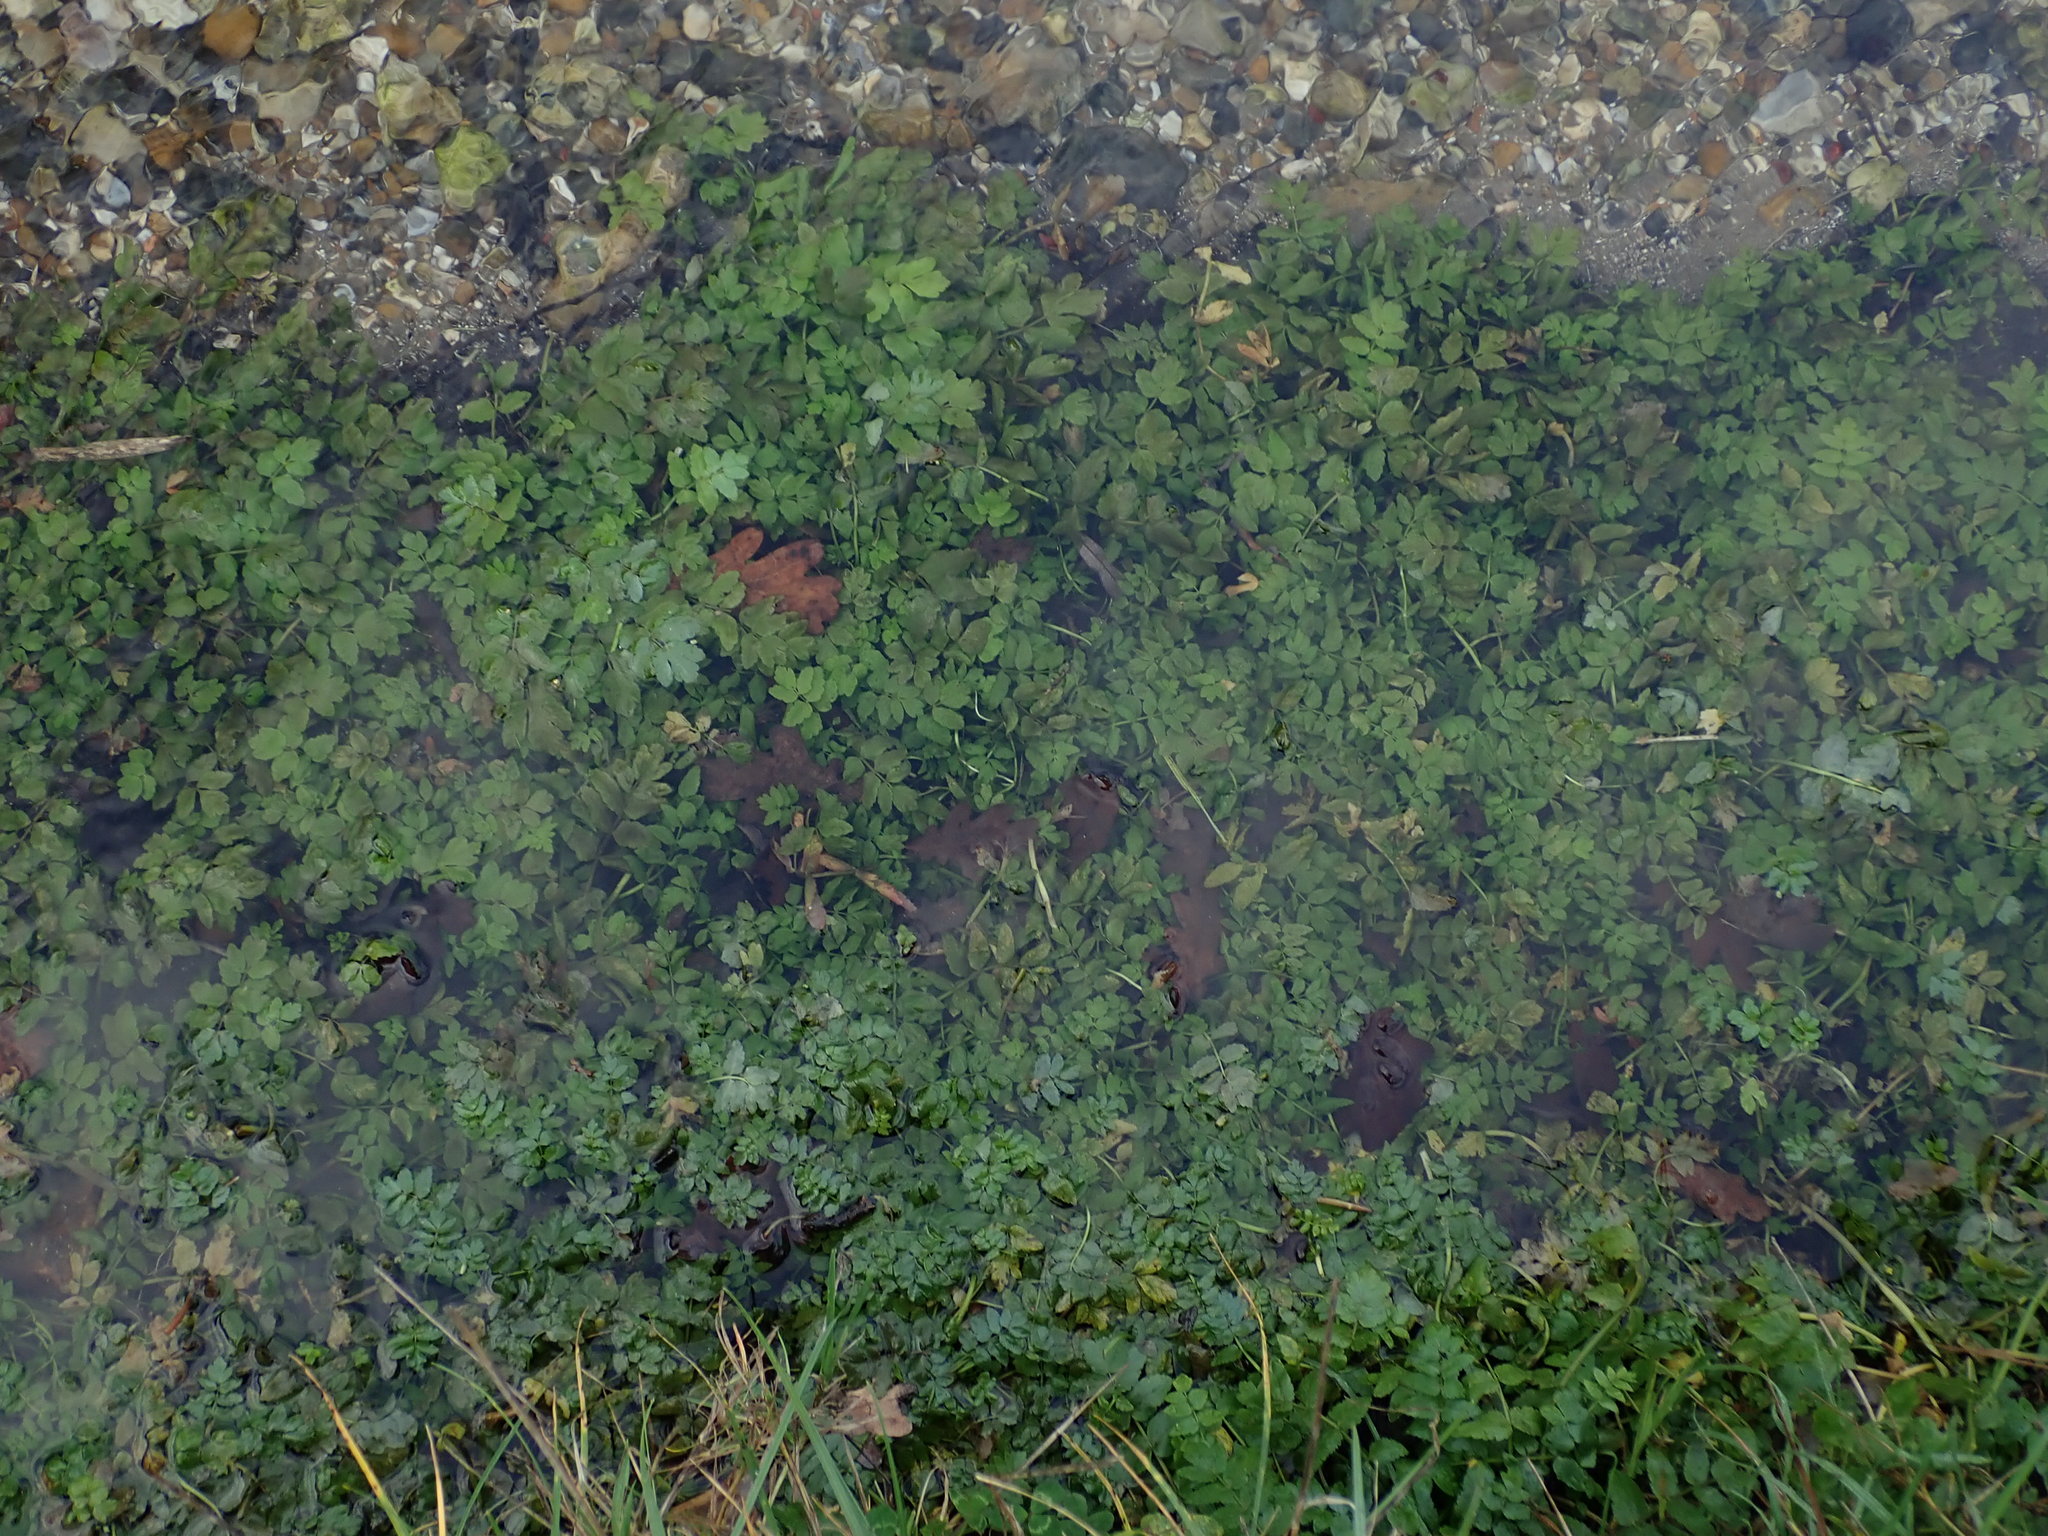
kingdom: Plantae
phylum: Tracheophyta
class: Magnoliopsida
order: Apiales
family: Apiaceae
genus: Helosciadium
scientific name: Helosciadium nodiflorum
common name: Fool's-watercress
